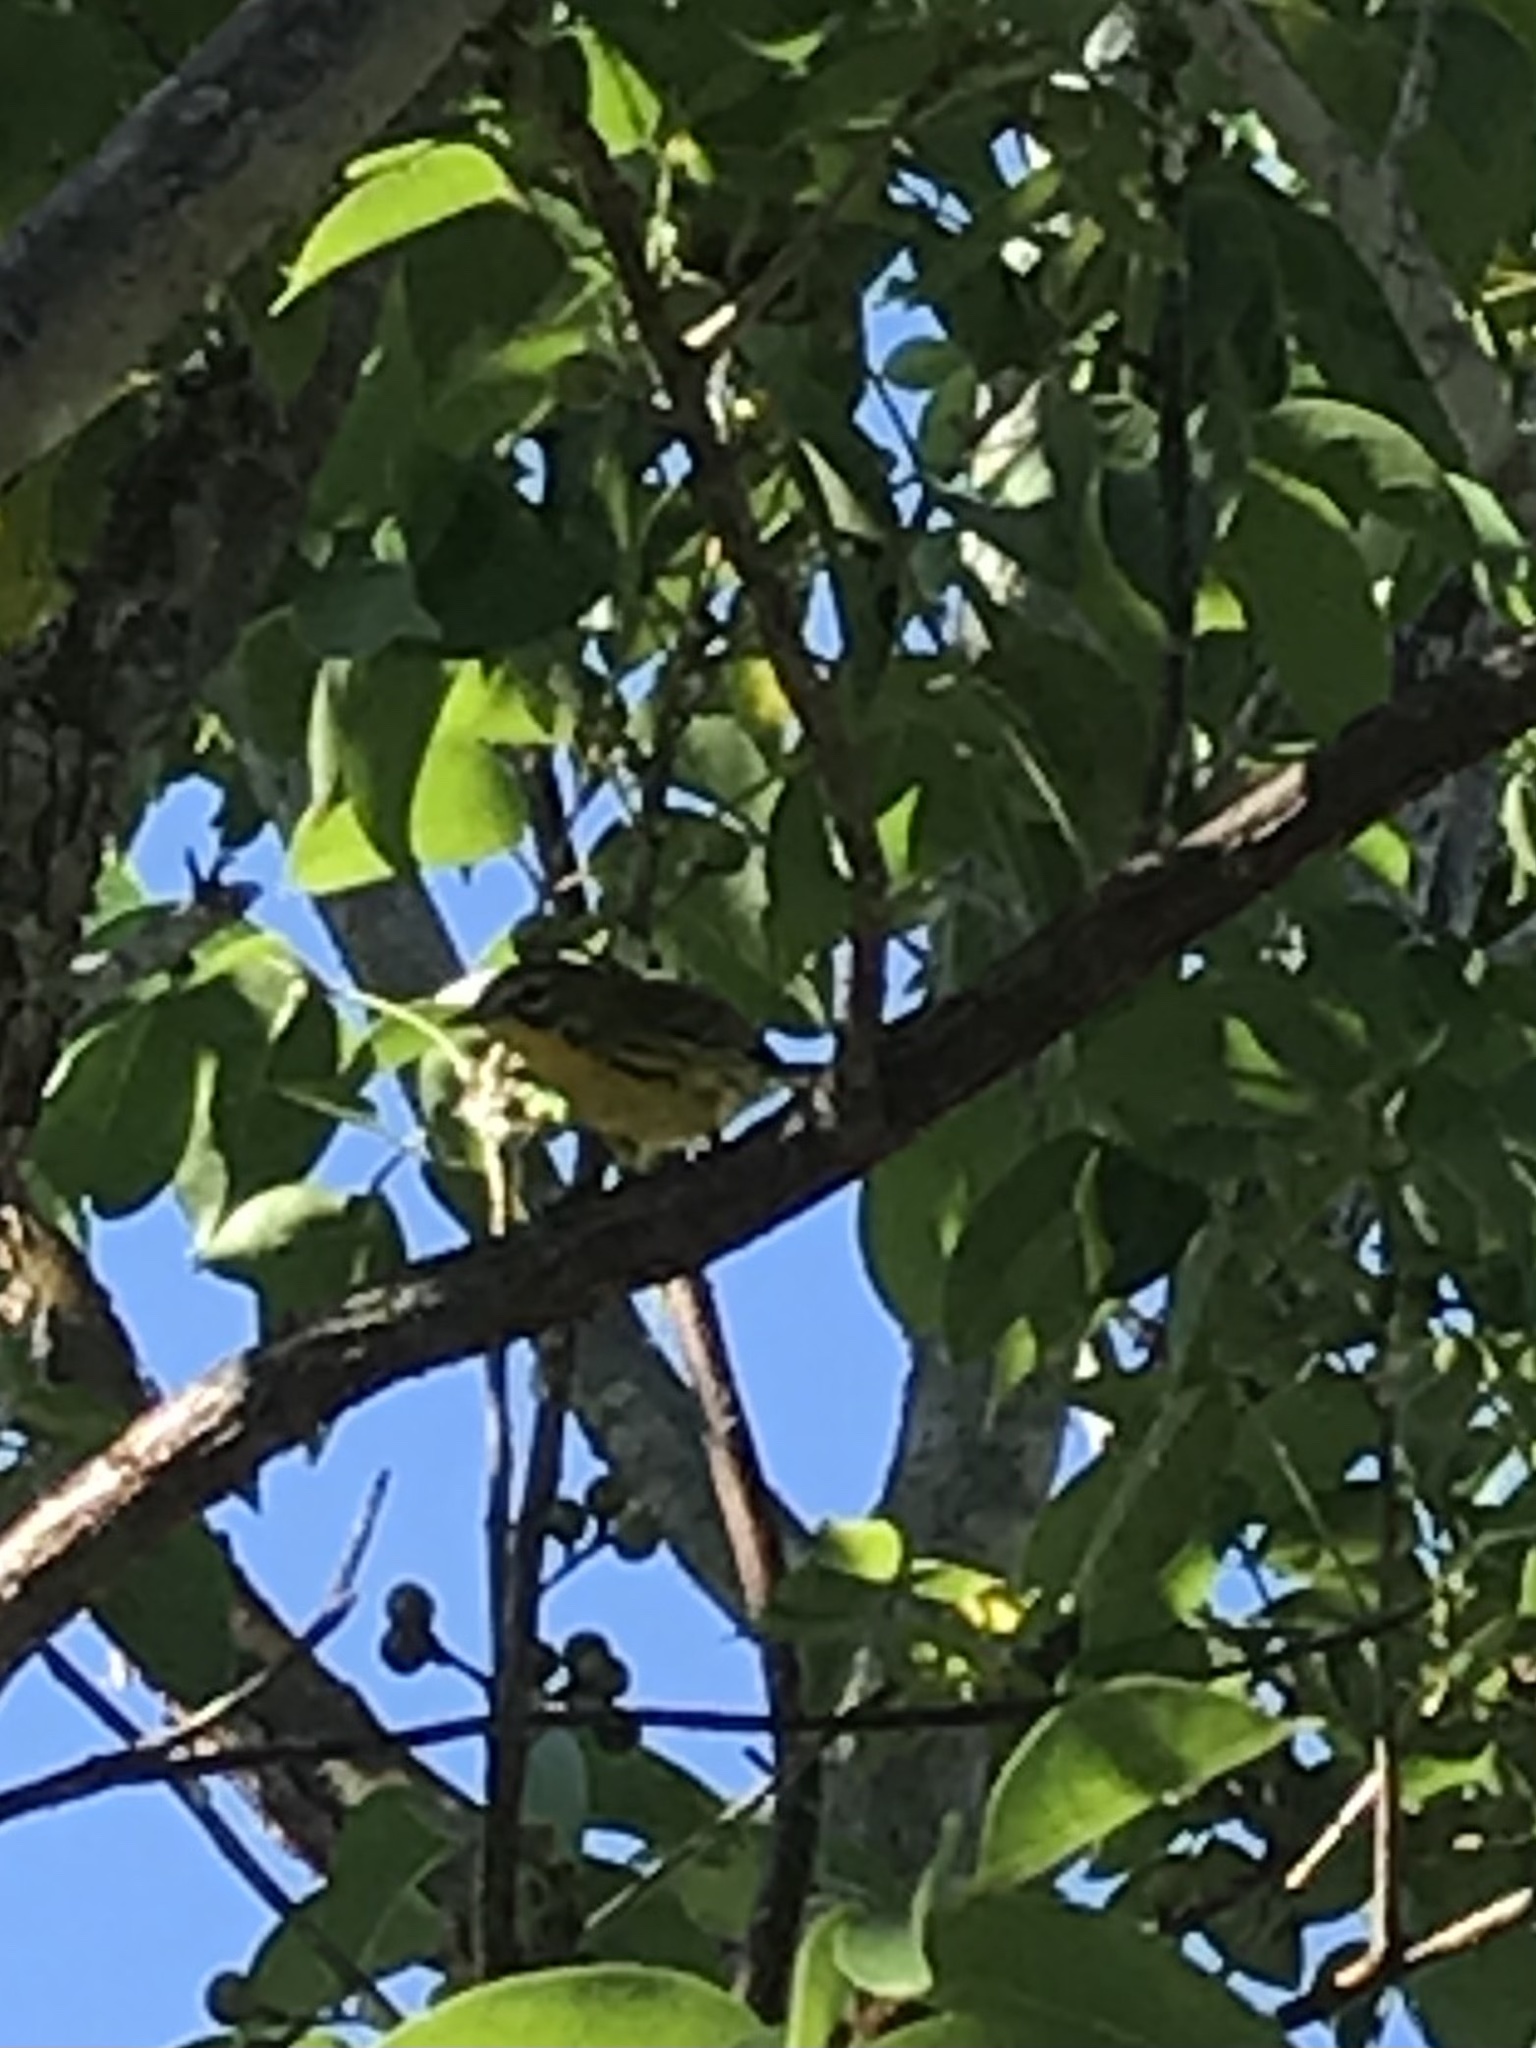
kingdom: Animalia
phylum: Chordata
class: Aves
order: Passeriformes
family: Parulidae
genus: Setophaga
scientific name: Setophaga discolor
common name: Prairie warbler
